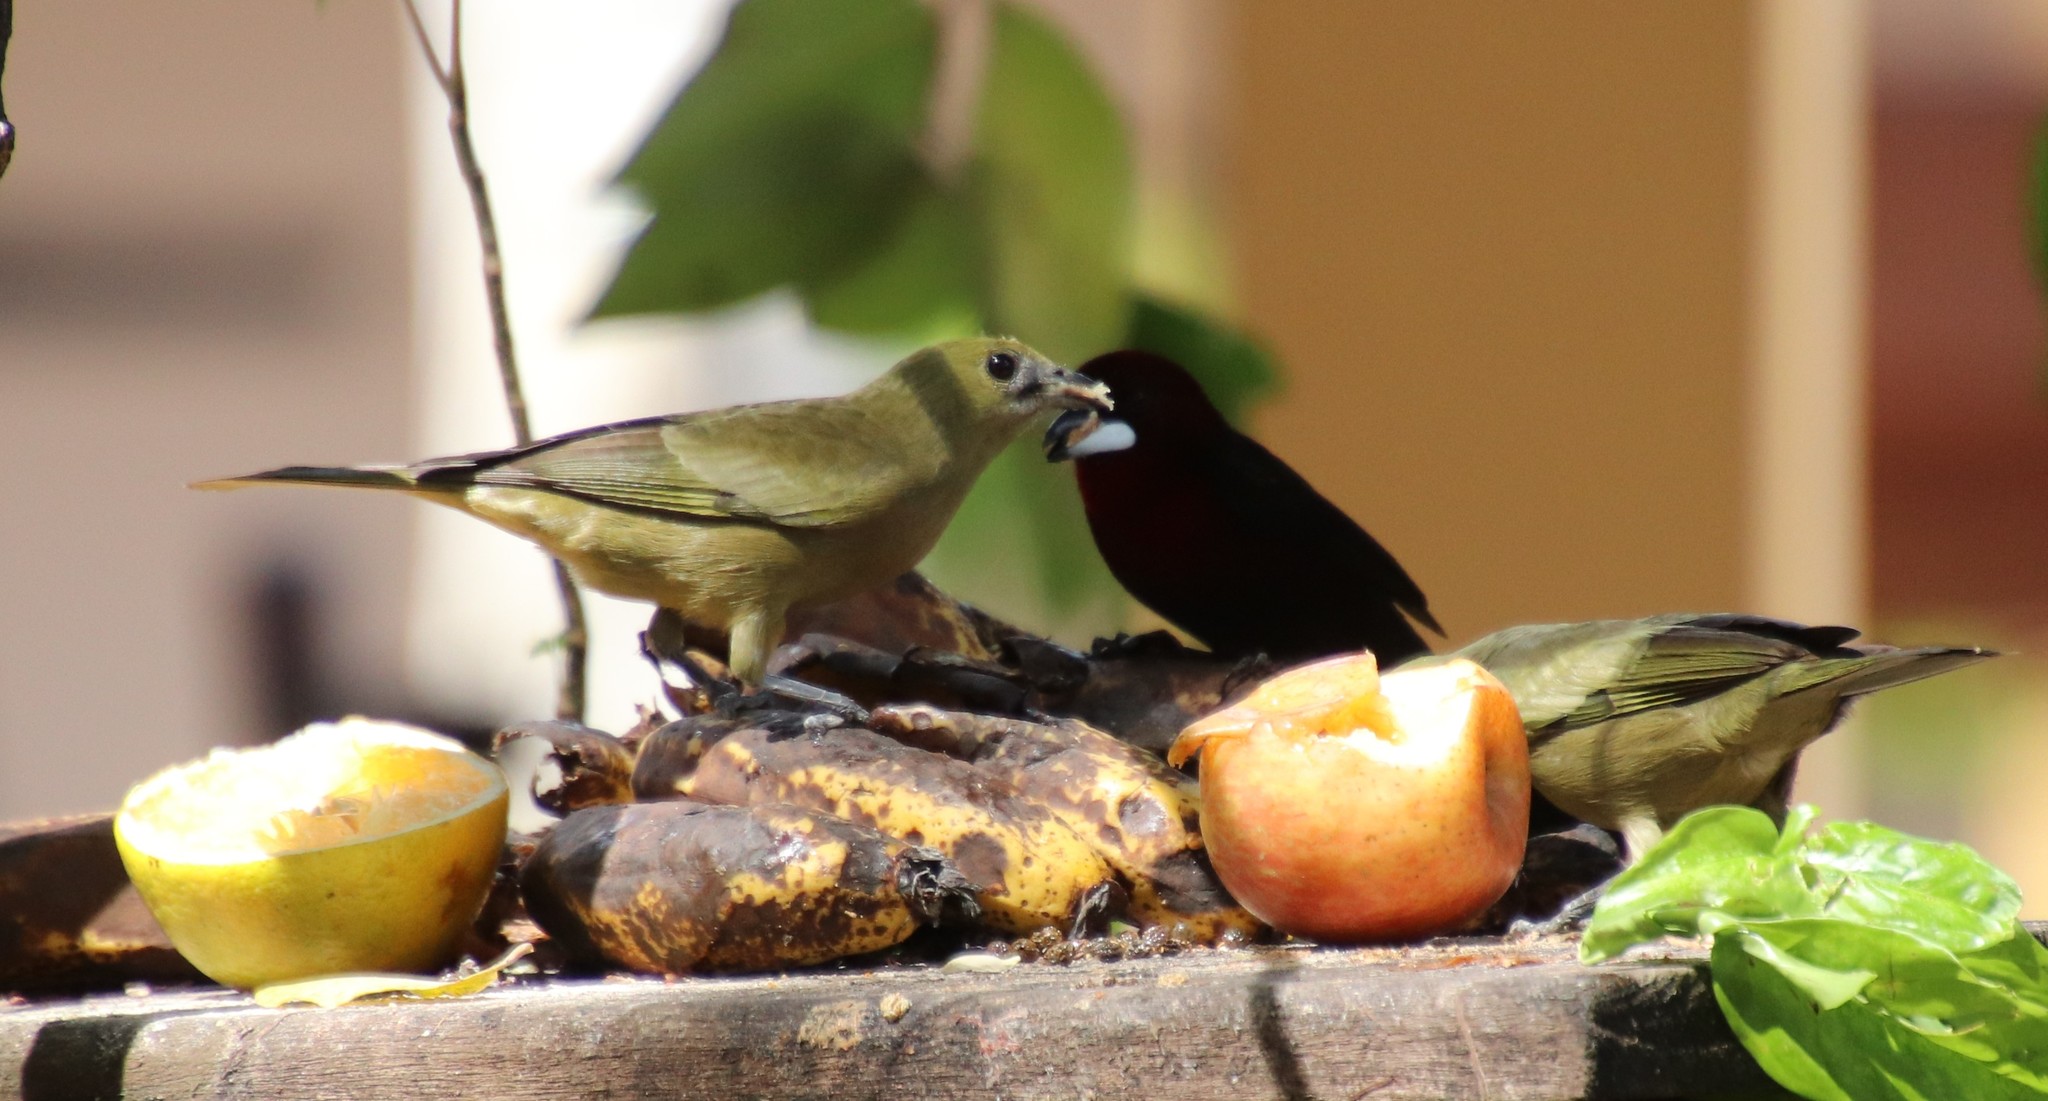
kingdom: Animalia
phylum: Chordata
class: Aves
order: Passeriformes
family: Thraupidae
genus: Thraupis
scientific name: Thraupis palmarum
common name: Palm tanager
